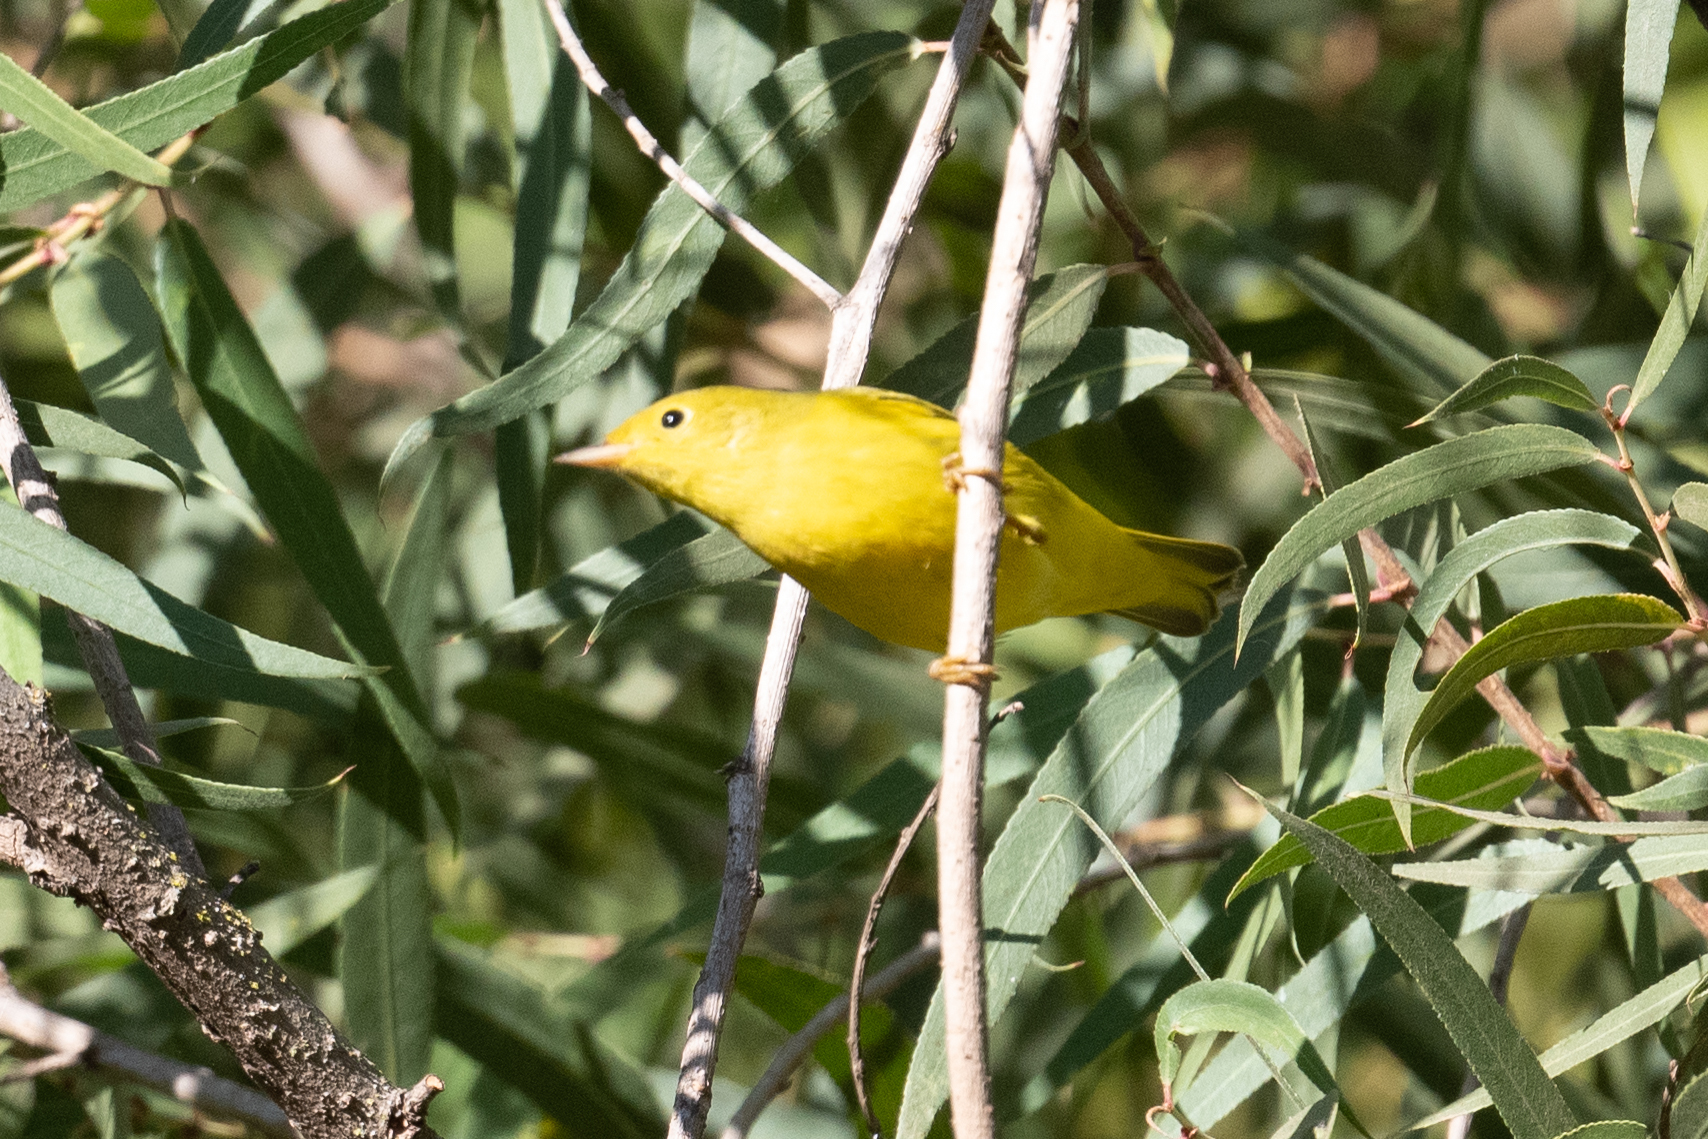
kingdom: Animalia
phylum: Chordata
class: Aves
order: Passeriformes
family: Parulidae
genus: Setophaga
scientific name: Setophaga petechia
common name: Yellow warbler
